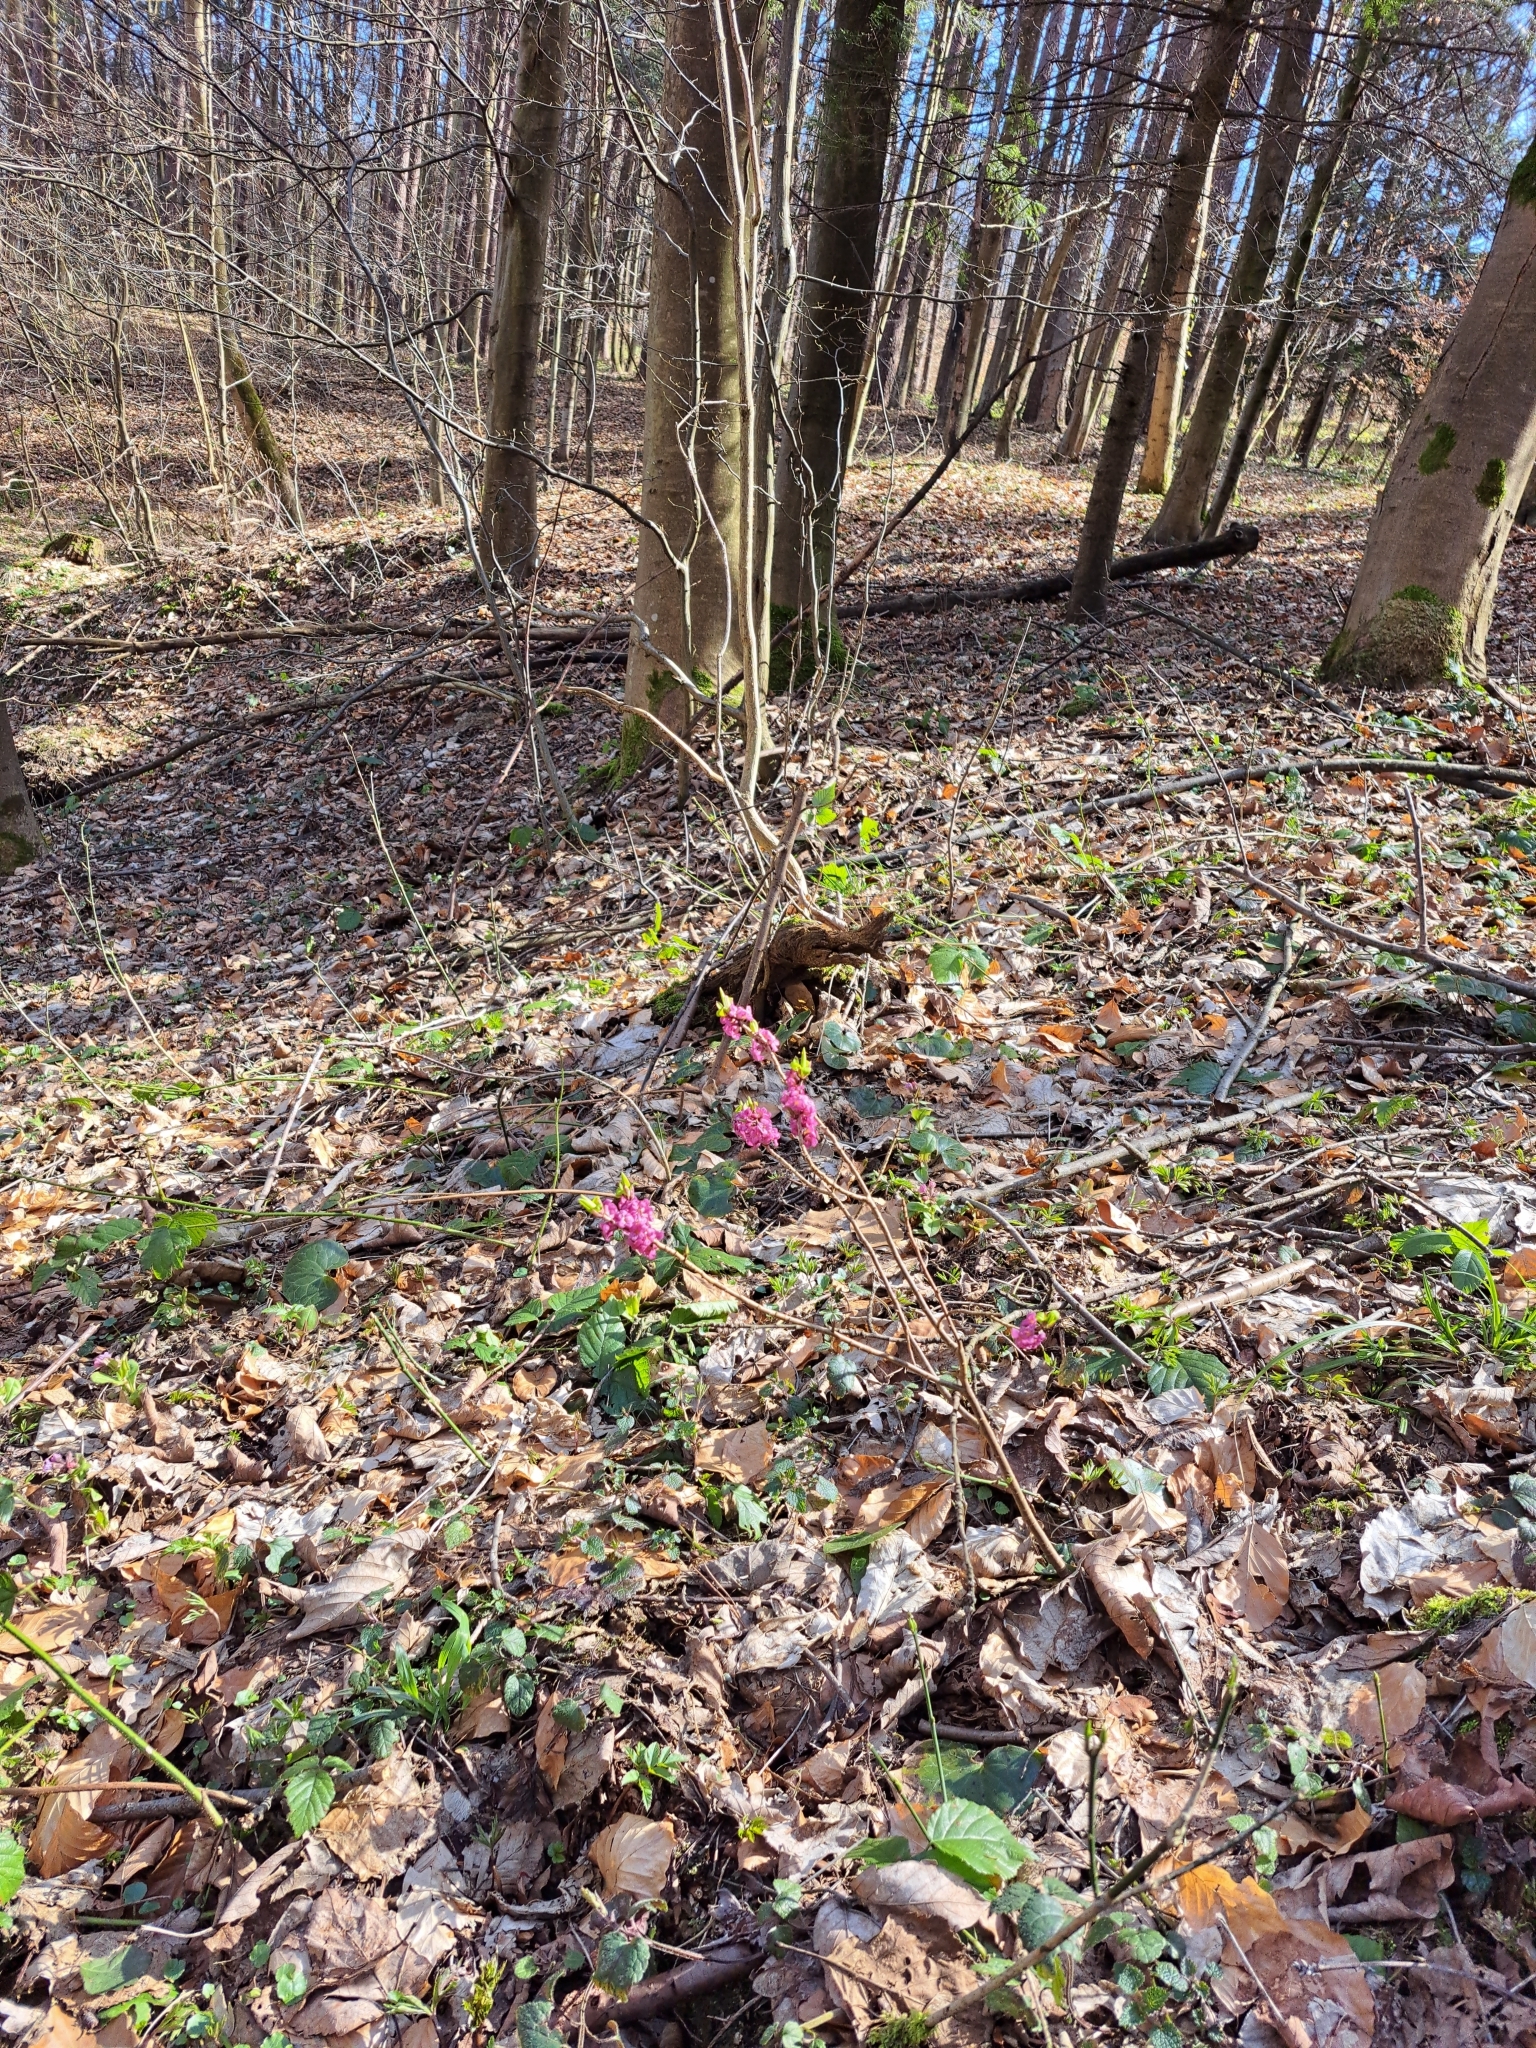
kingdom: Plantae
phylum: Tracheophyta
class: Magnoliopsida
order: Malvales
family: Thymelaeaceae
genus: Daphne
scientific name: Daphne mezereum
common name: Mezereon
